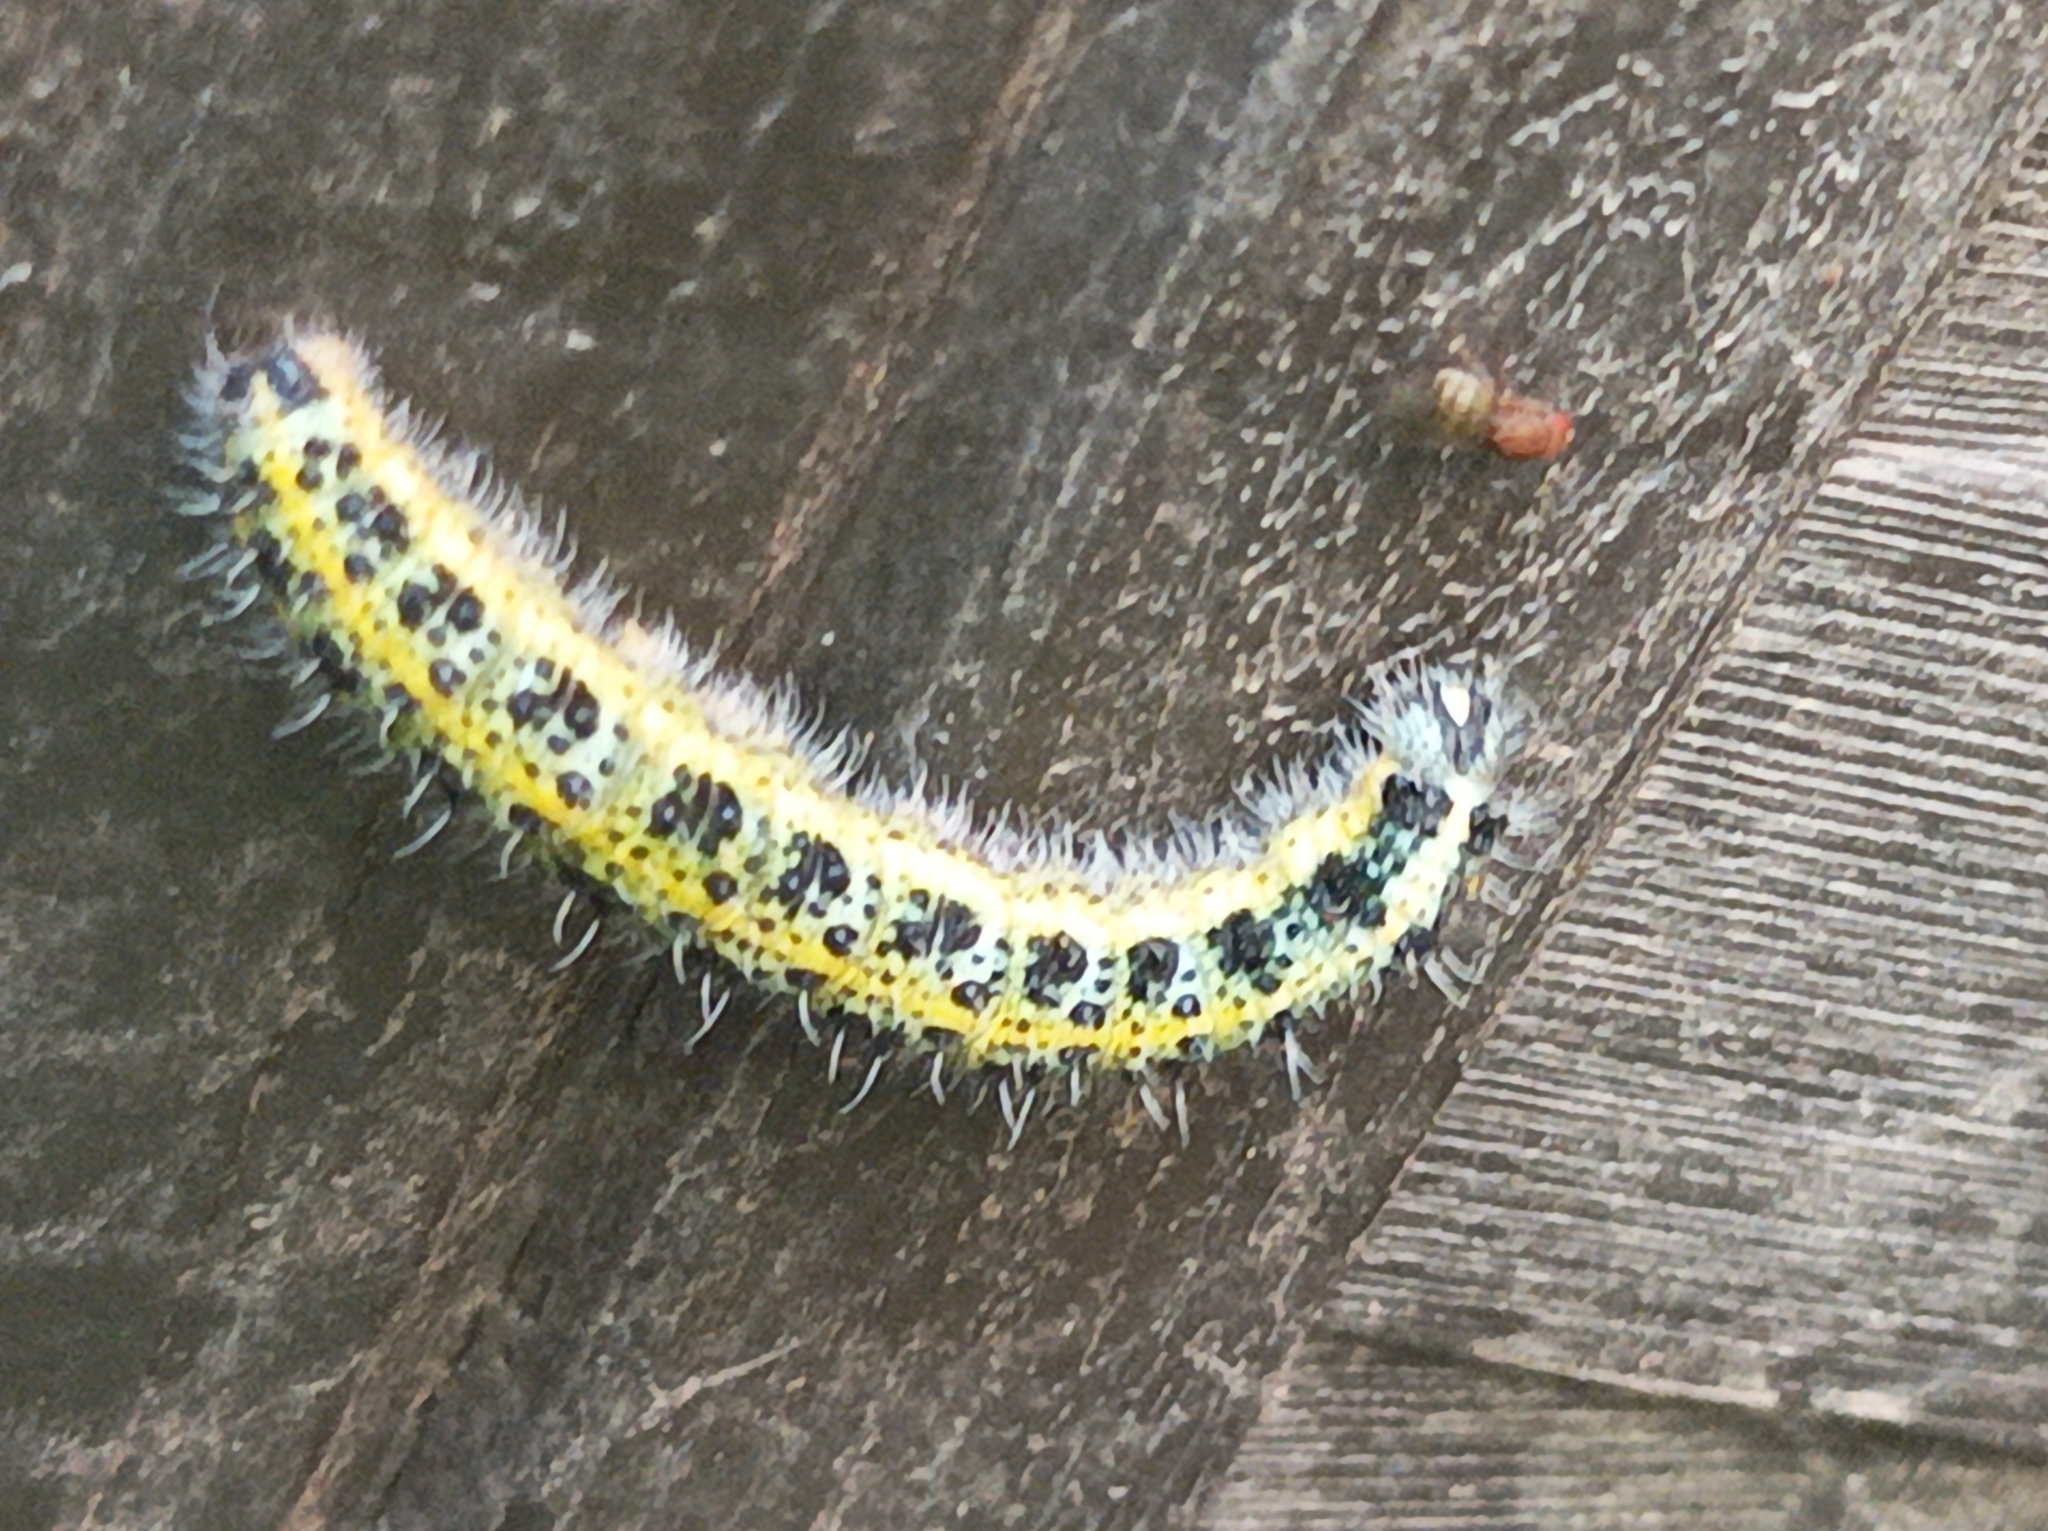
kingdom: Animalia
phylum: Arthropoda
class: Insecta
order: Lepidoptera
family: Pieridae
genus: Pieris
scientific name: Pieris brassicae
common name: Large white
